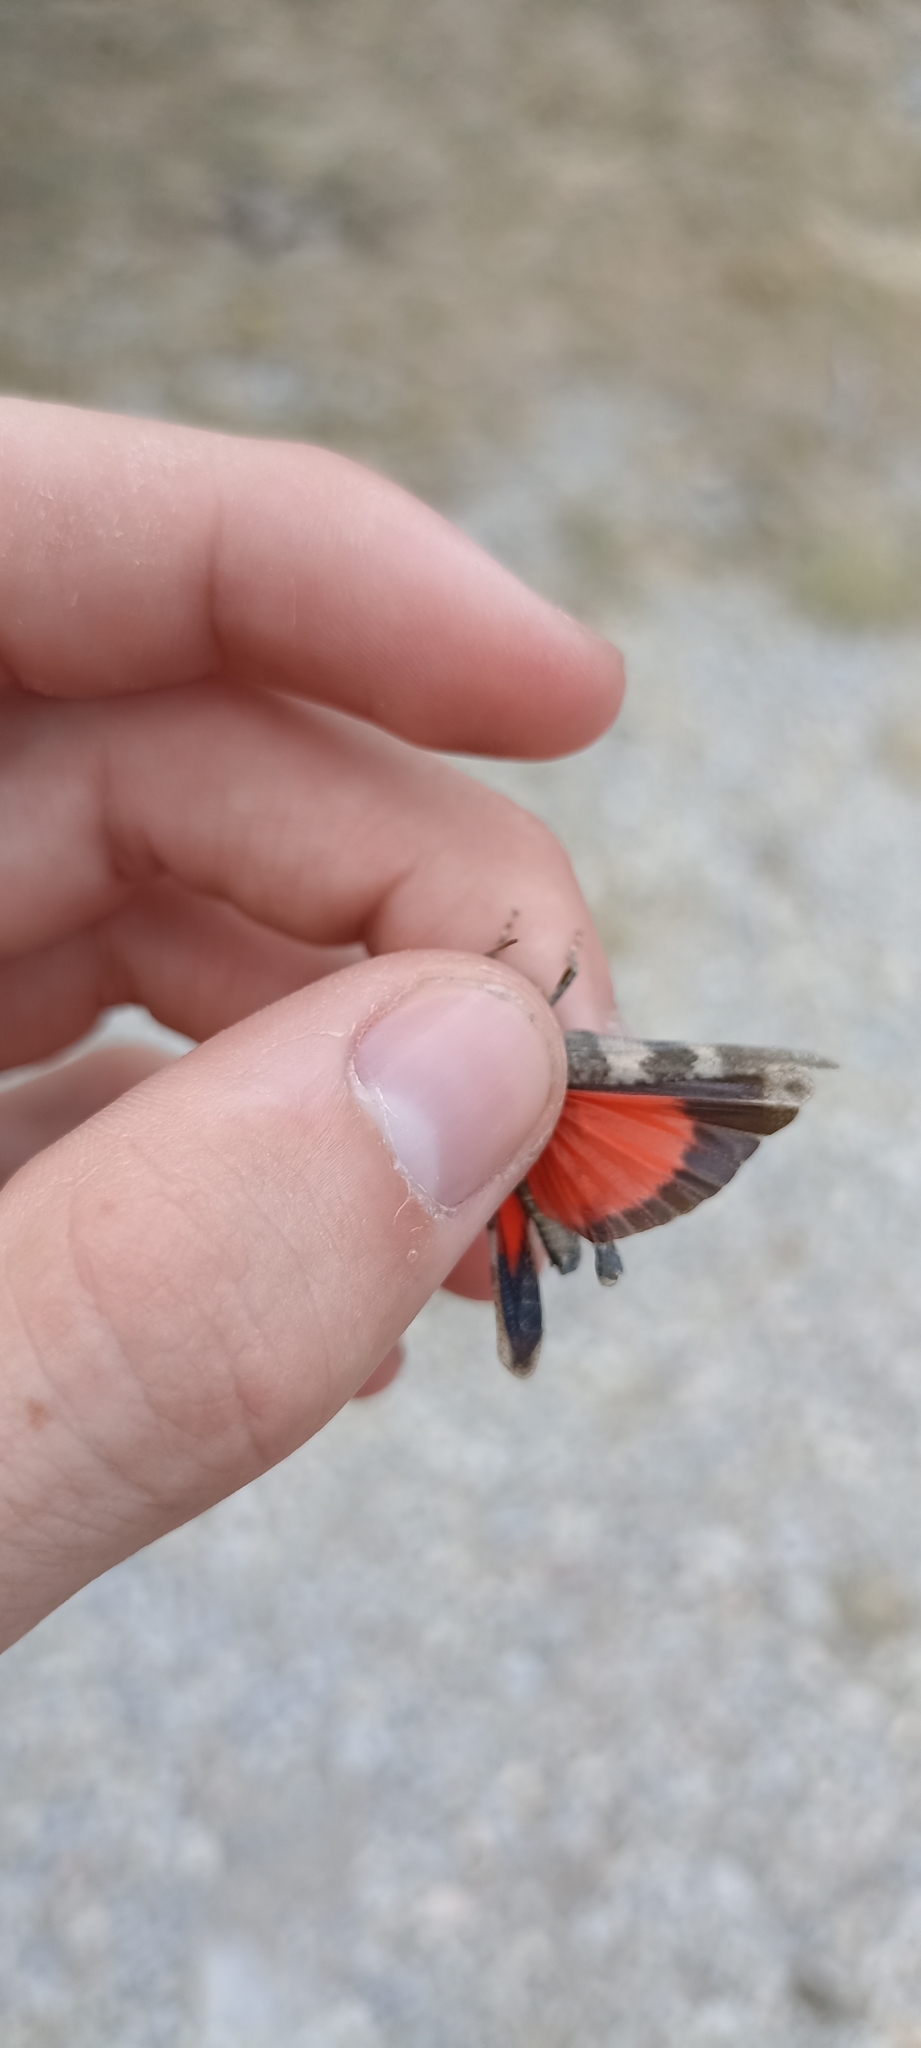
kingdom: Animalia
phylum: Arthropoda
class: Insecta
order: Orthoptera
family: Acrididae
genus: Oedipoda
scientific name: Oedipoda germanica
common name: Red band-winged grasshopper
